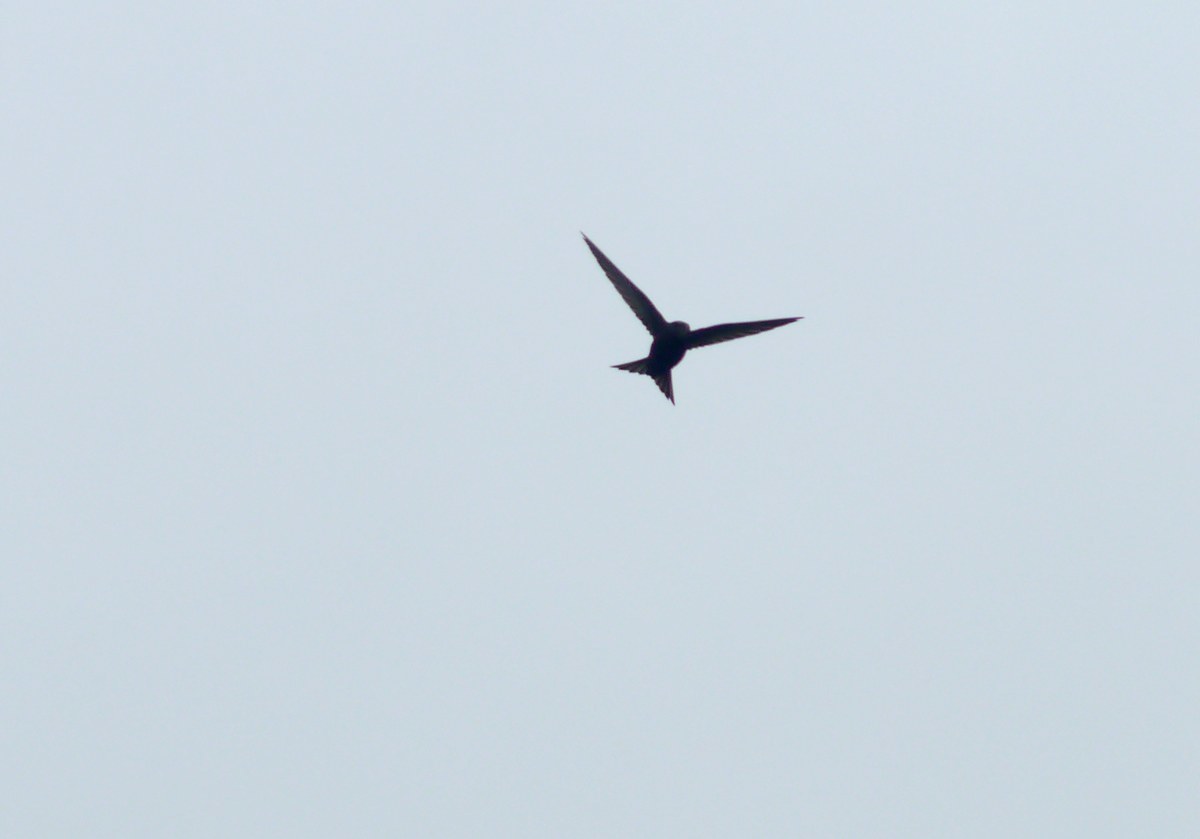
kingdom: Animalia
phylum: Chordata
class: Aves
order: Apodiformes
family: Apodidae
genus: Apus
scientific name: Apus apus
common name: Common swift
